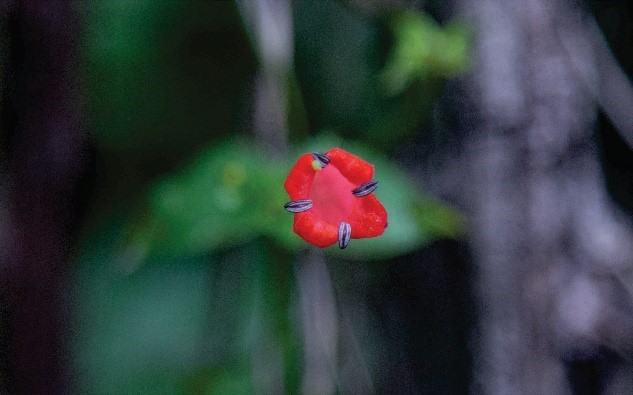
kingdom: Plantae
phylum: Tracheophyta
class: Magnoliopsida
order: Gentianales
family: Rubiaceae
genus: Manettia
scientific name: Manettia cordifolia
